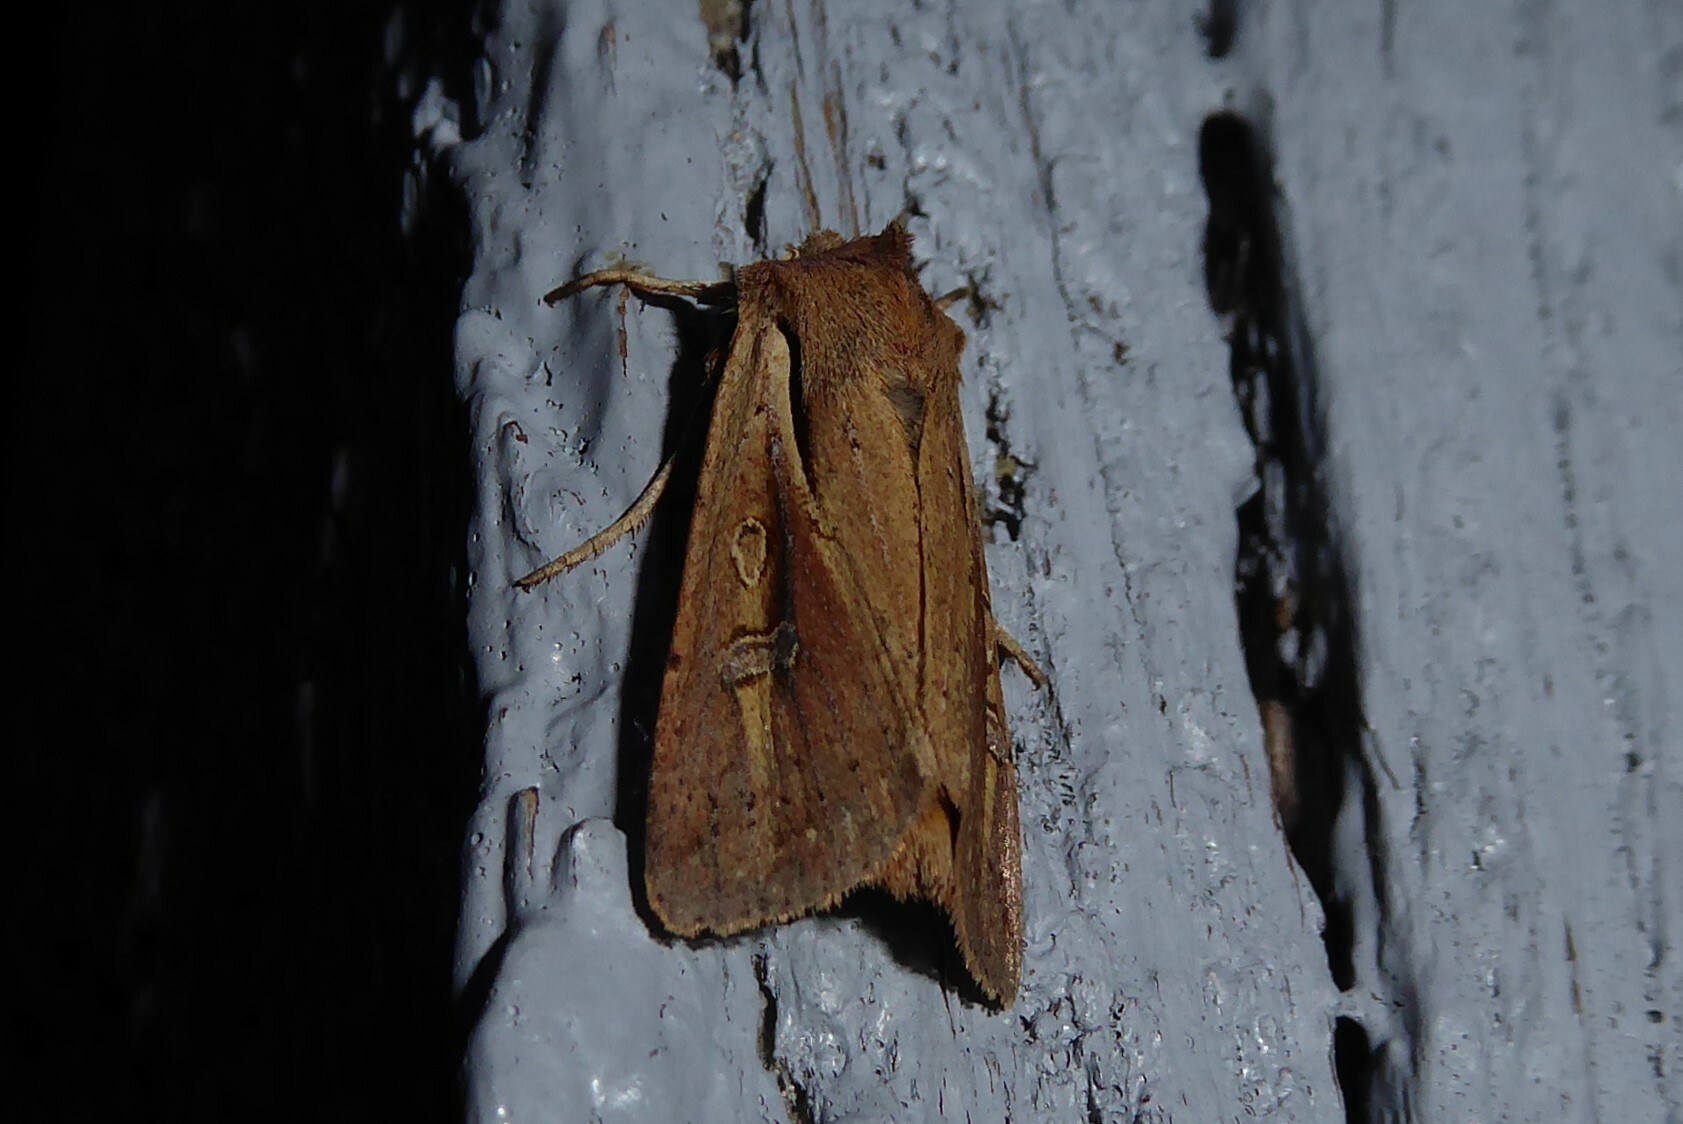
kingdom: Animalia
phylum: Arthropoda
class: Insecta
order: Lepidoptera
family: Noctuidae
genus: Ichneutica
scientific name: Ichneutica atristriga
